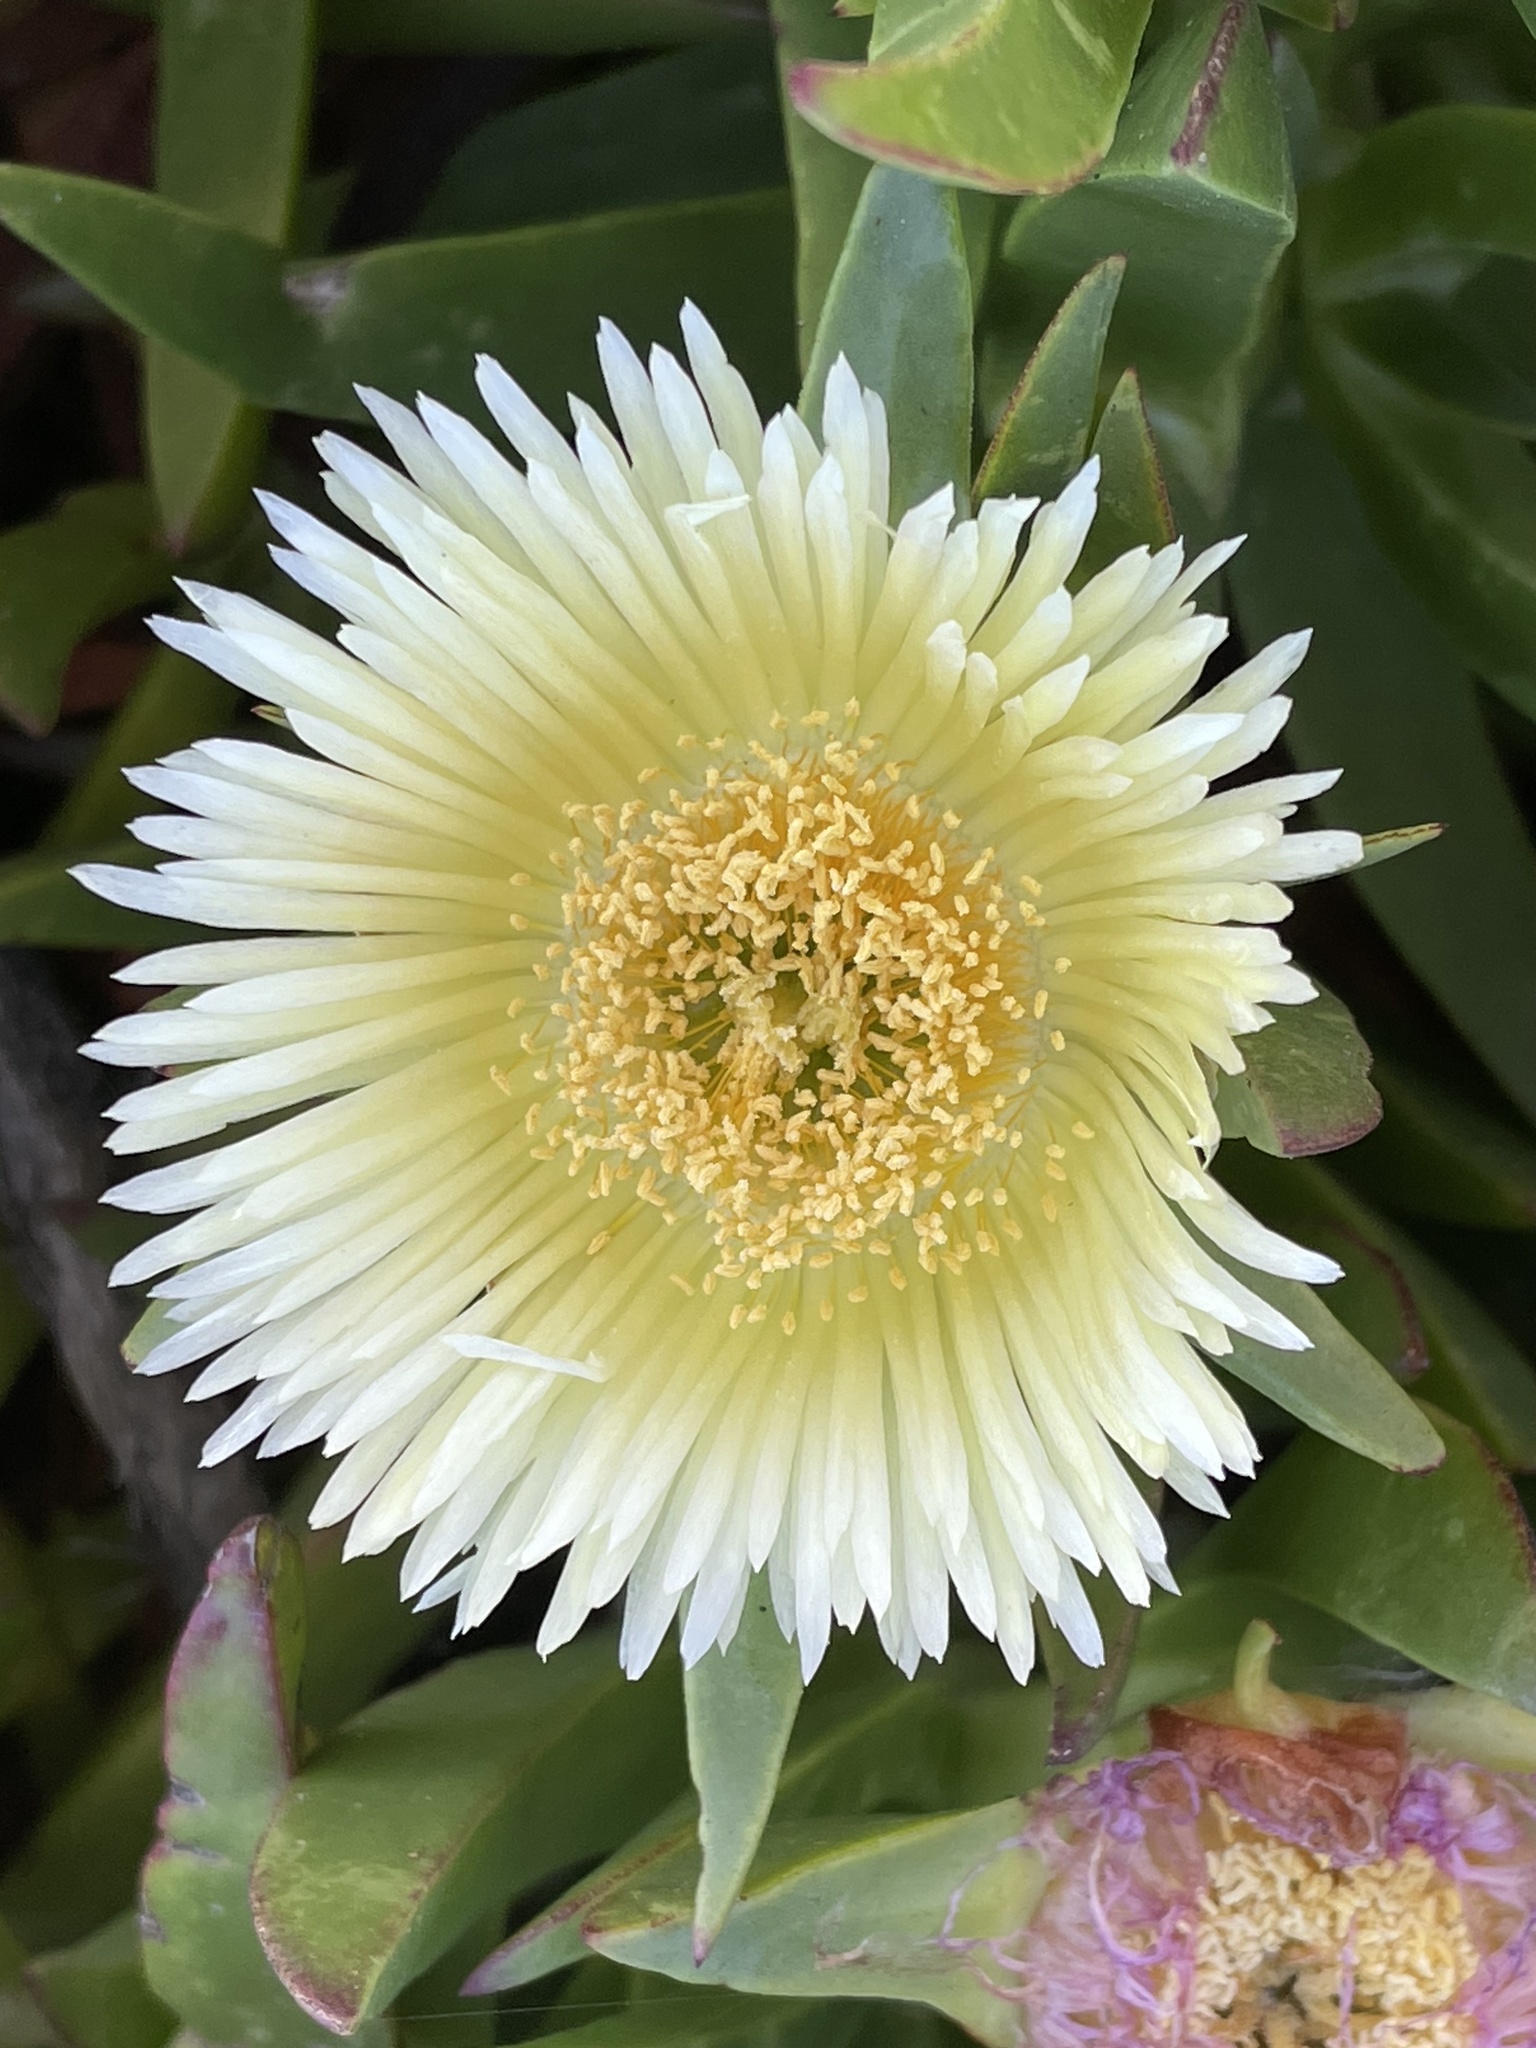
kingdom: Plantae
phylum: Tracheophyta
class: Magnoliopsida
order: Caryophyllales
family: Aizoaceae
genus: Carpobrotus
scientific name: Carpobrotus edulis
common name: Hottentot-fig
